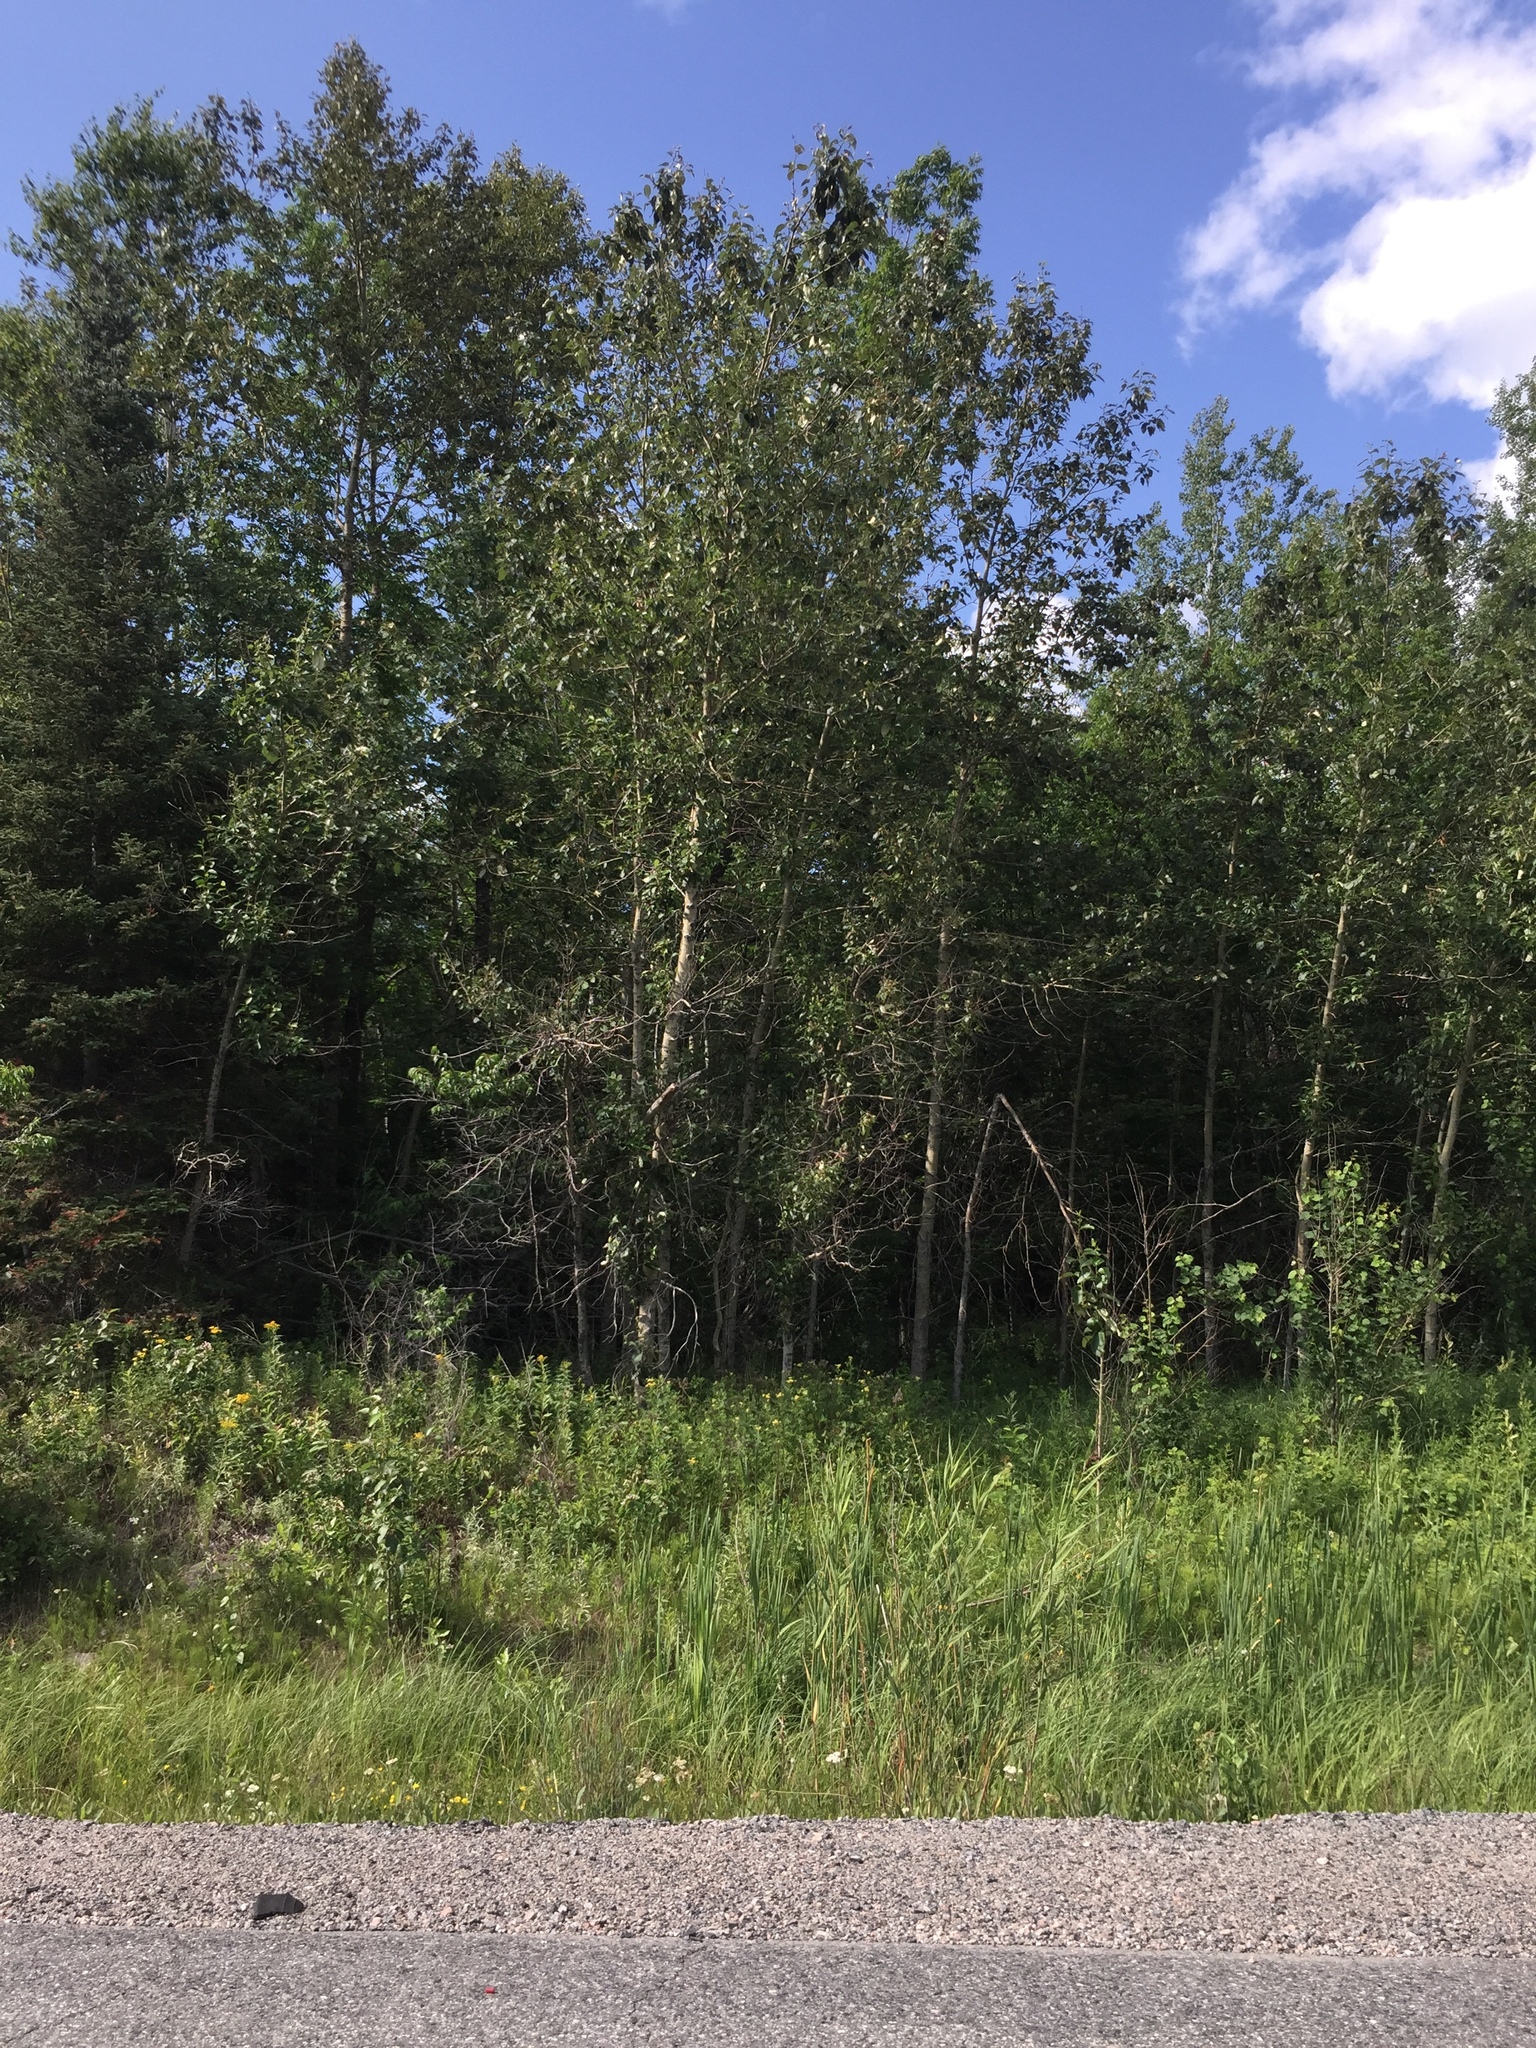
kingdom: Plantae
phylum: Tracheophyta
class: Magnoliopsida
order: Malpighiales
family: Salicaceae
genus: Populus
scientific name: Populus balsamifera
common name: Balsam poplar
